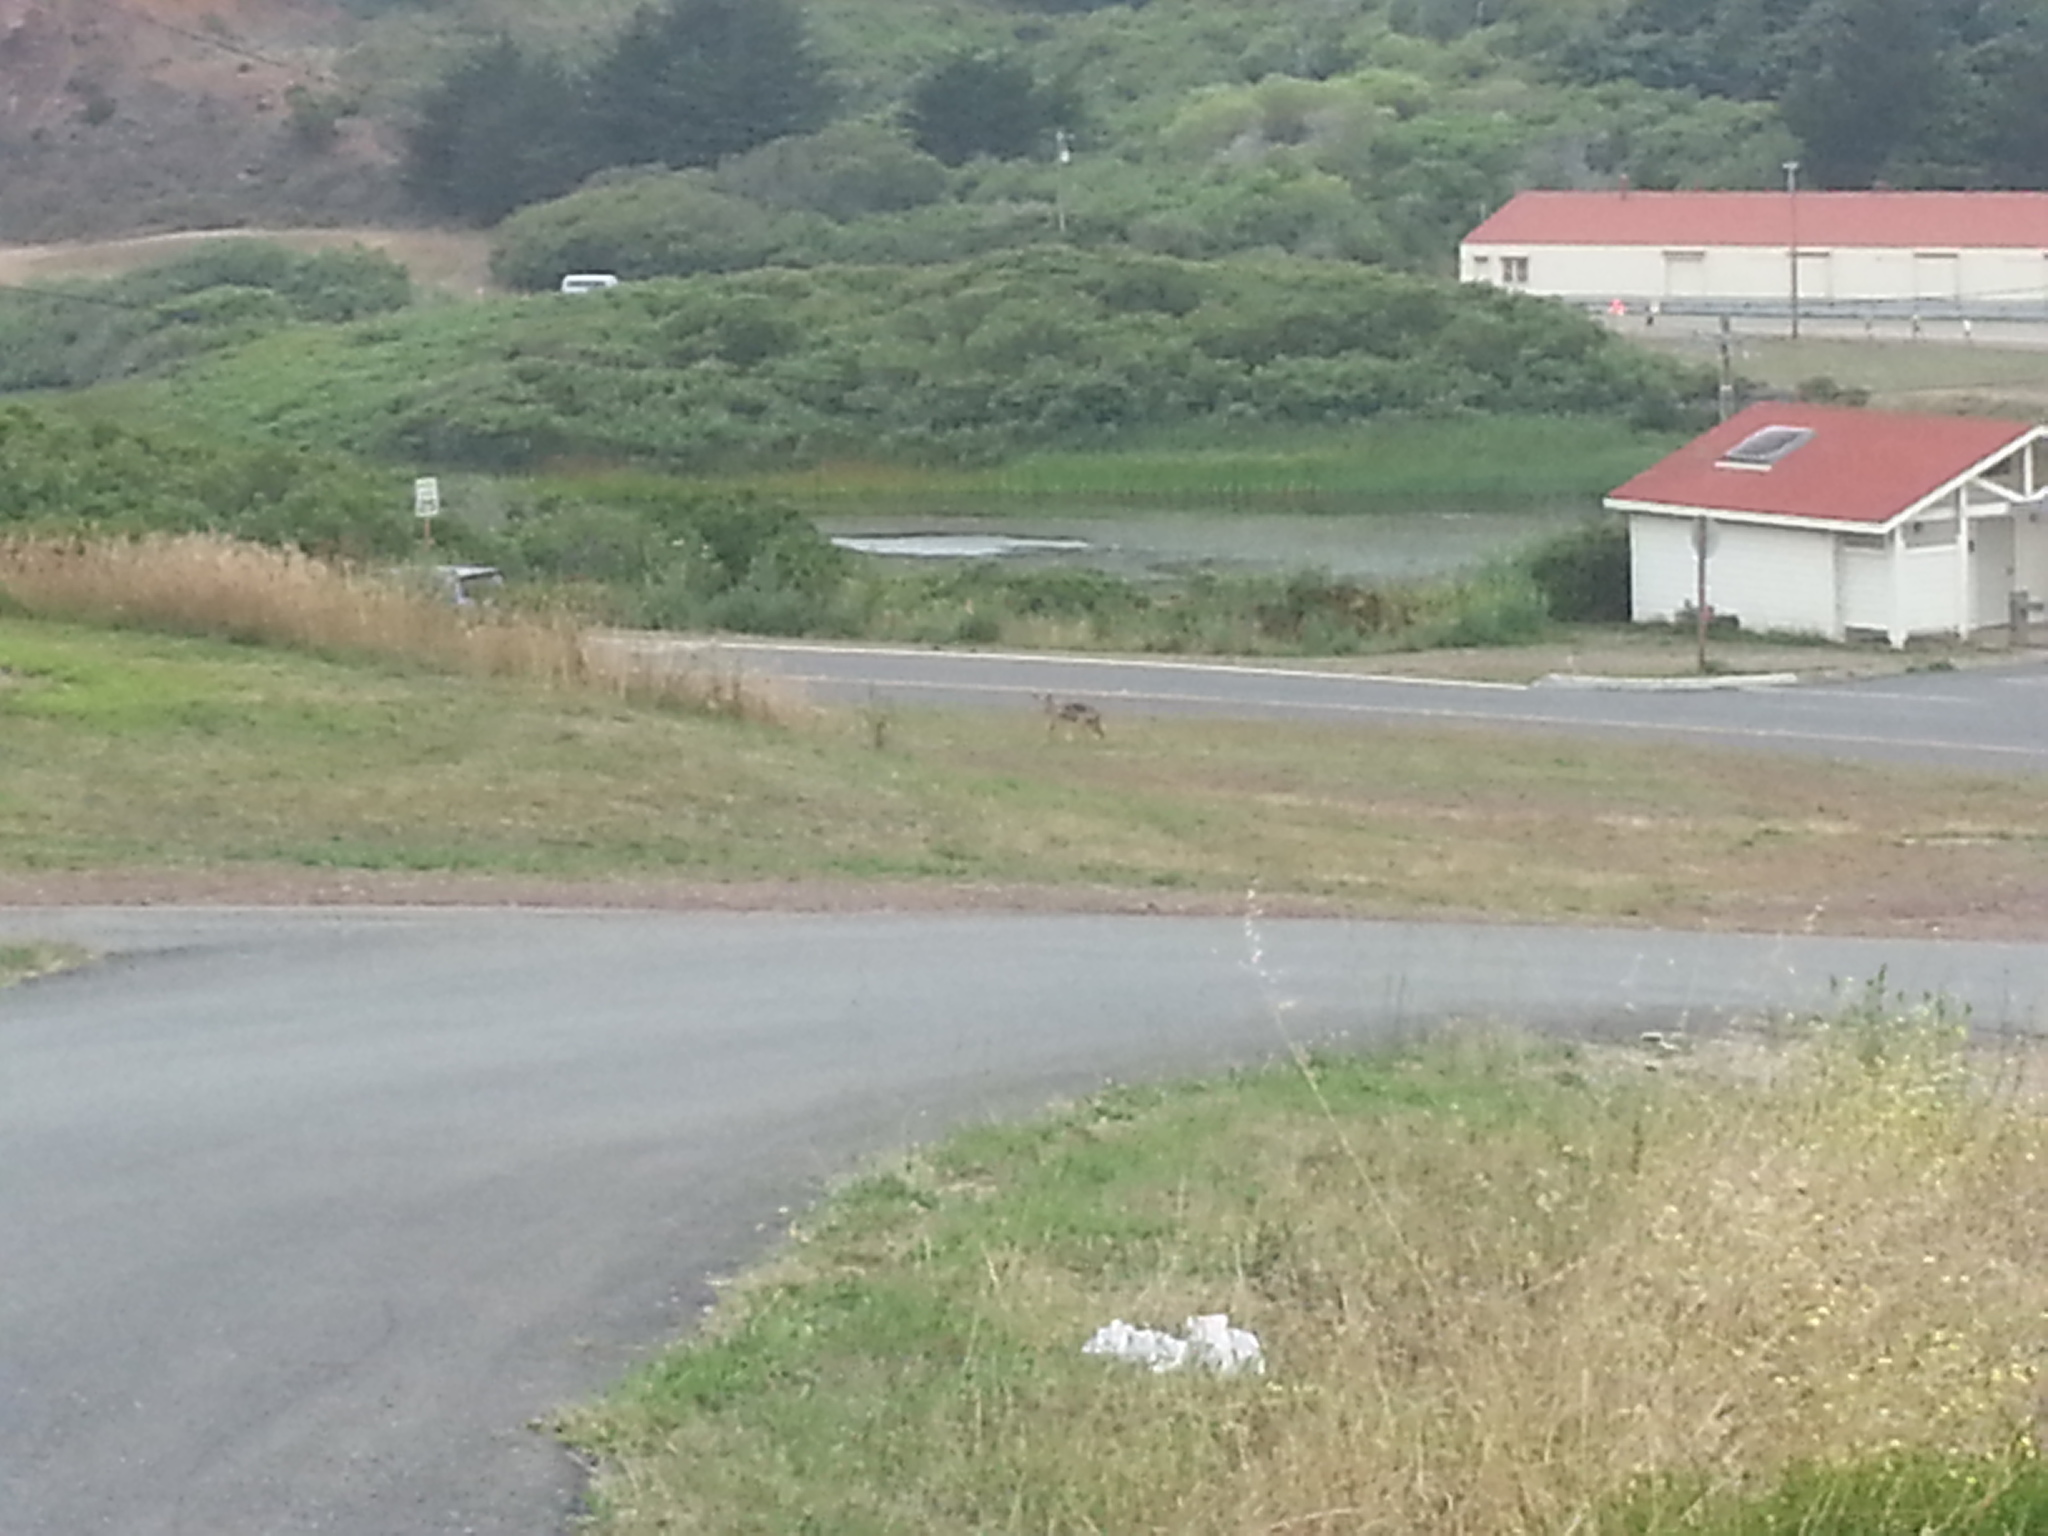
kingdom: Animalia
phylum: Chordata
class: Mammalia
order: Carnivora
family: Canidae
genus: Canis
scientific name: Canis latrans
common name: Coyote
